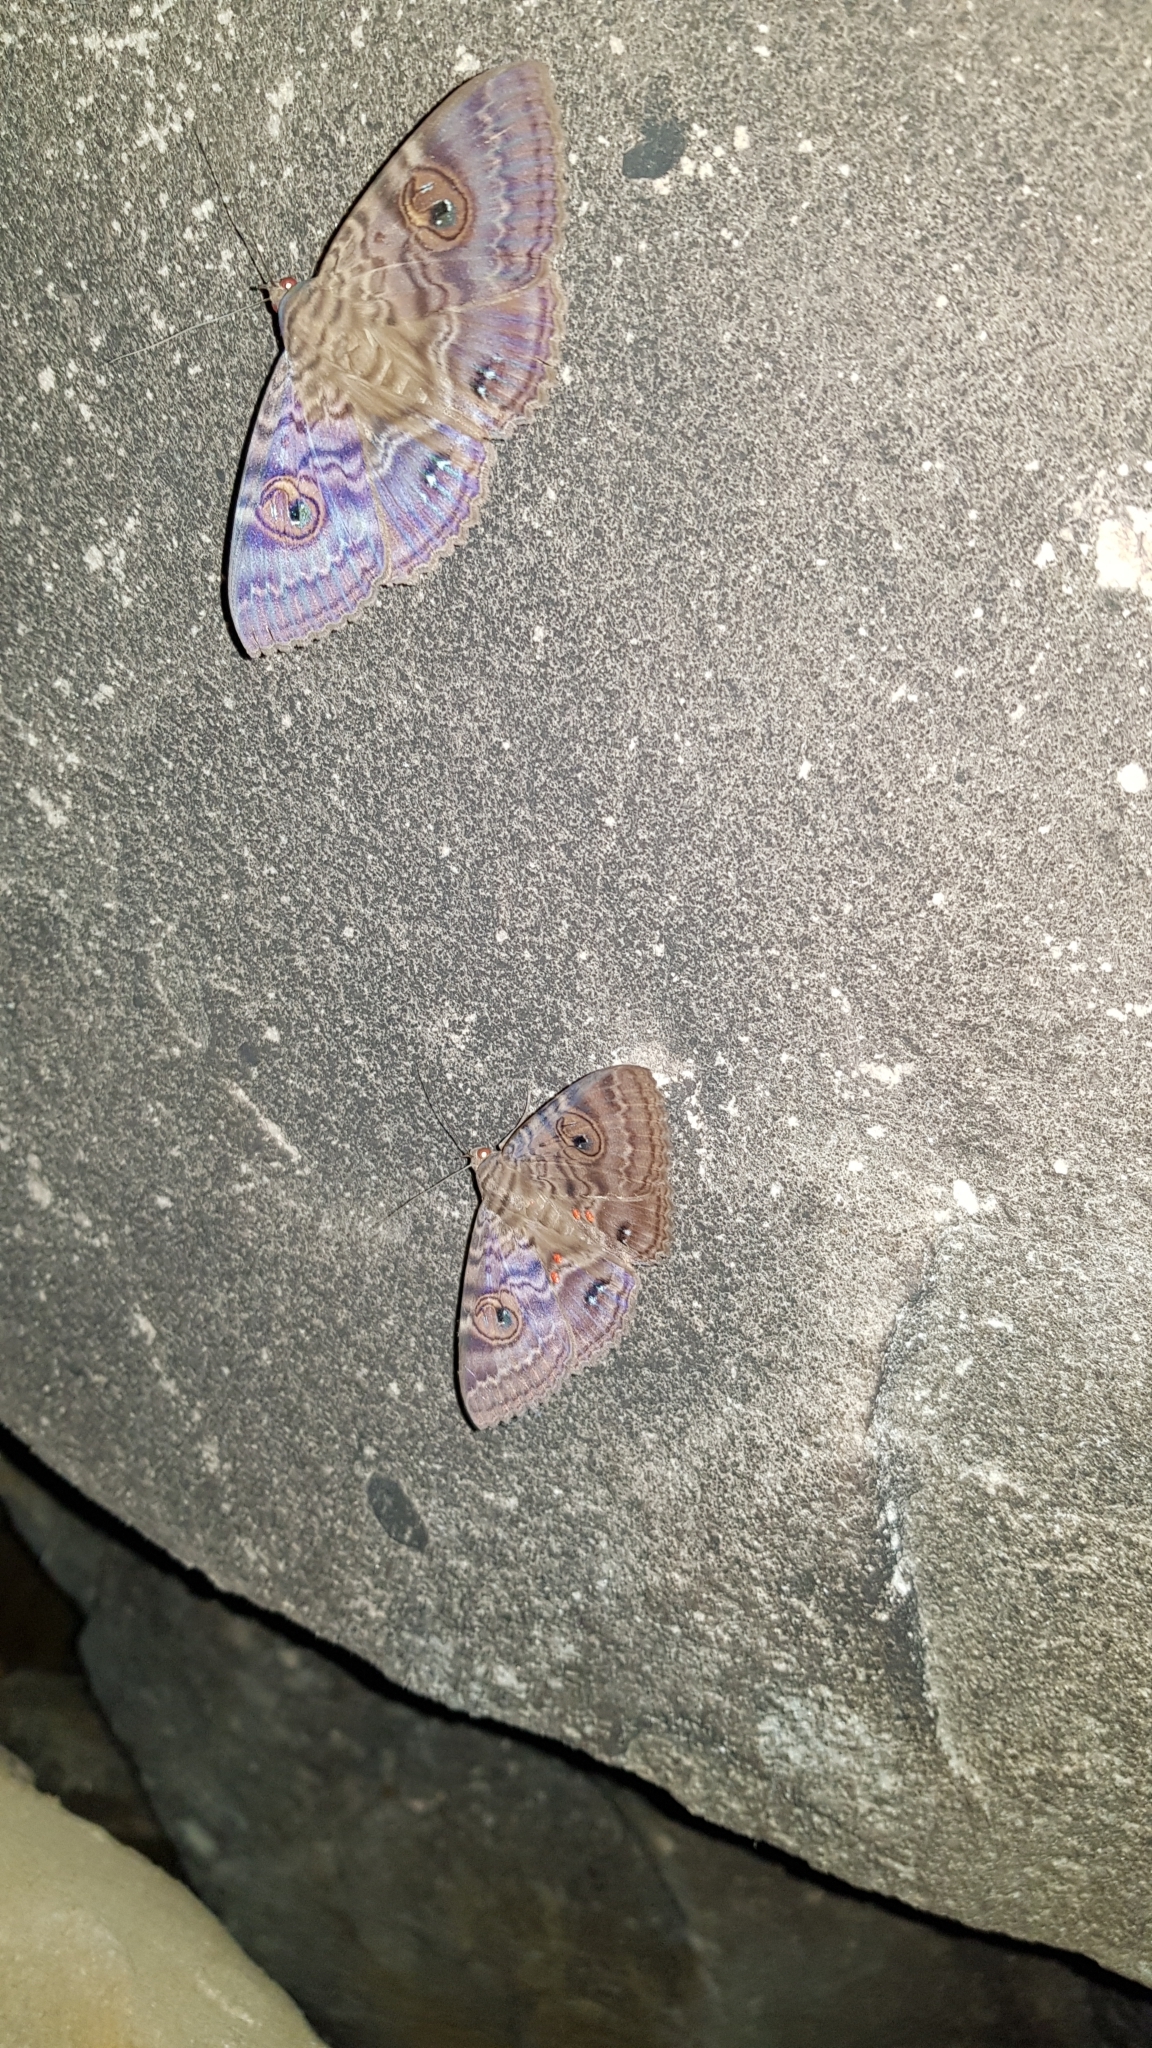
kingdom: Animalia
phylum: Arthropoda
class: Insecta
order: Lepidoptera
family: Erebidae
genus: Speiredonia
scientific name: Speiredonia spectans
